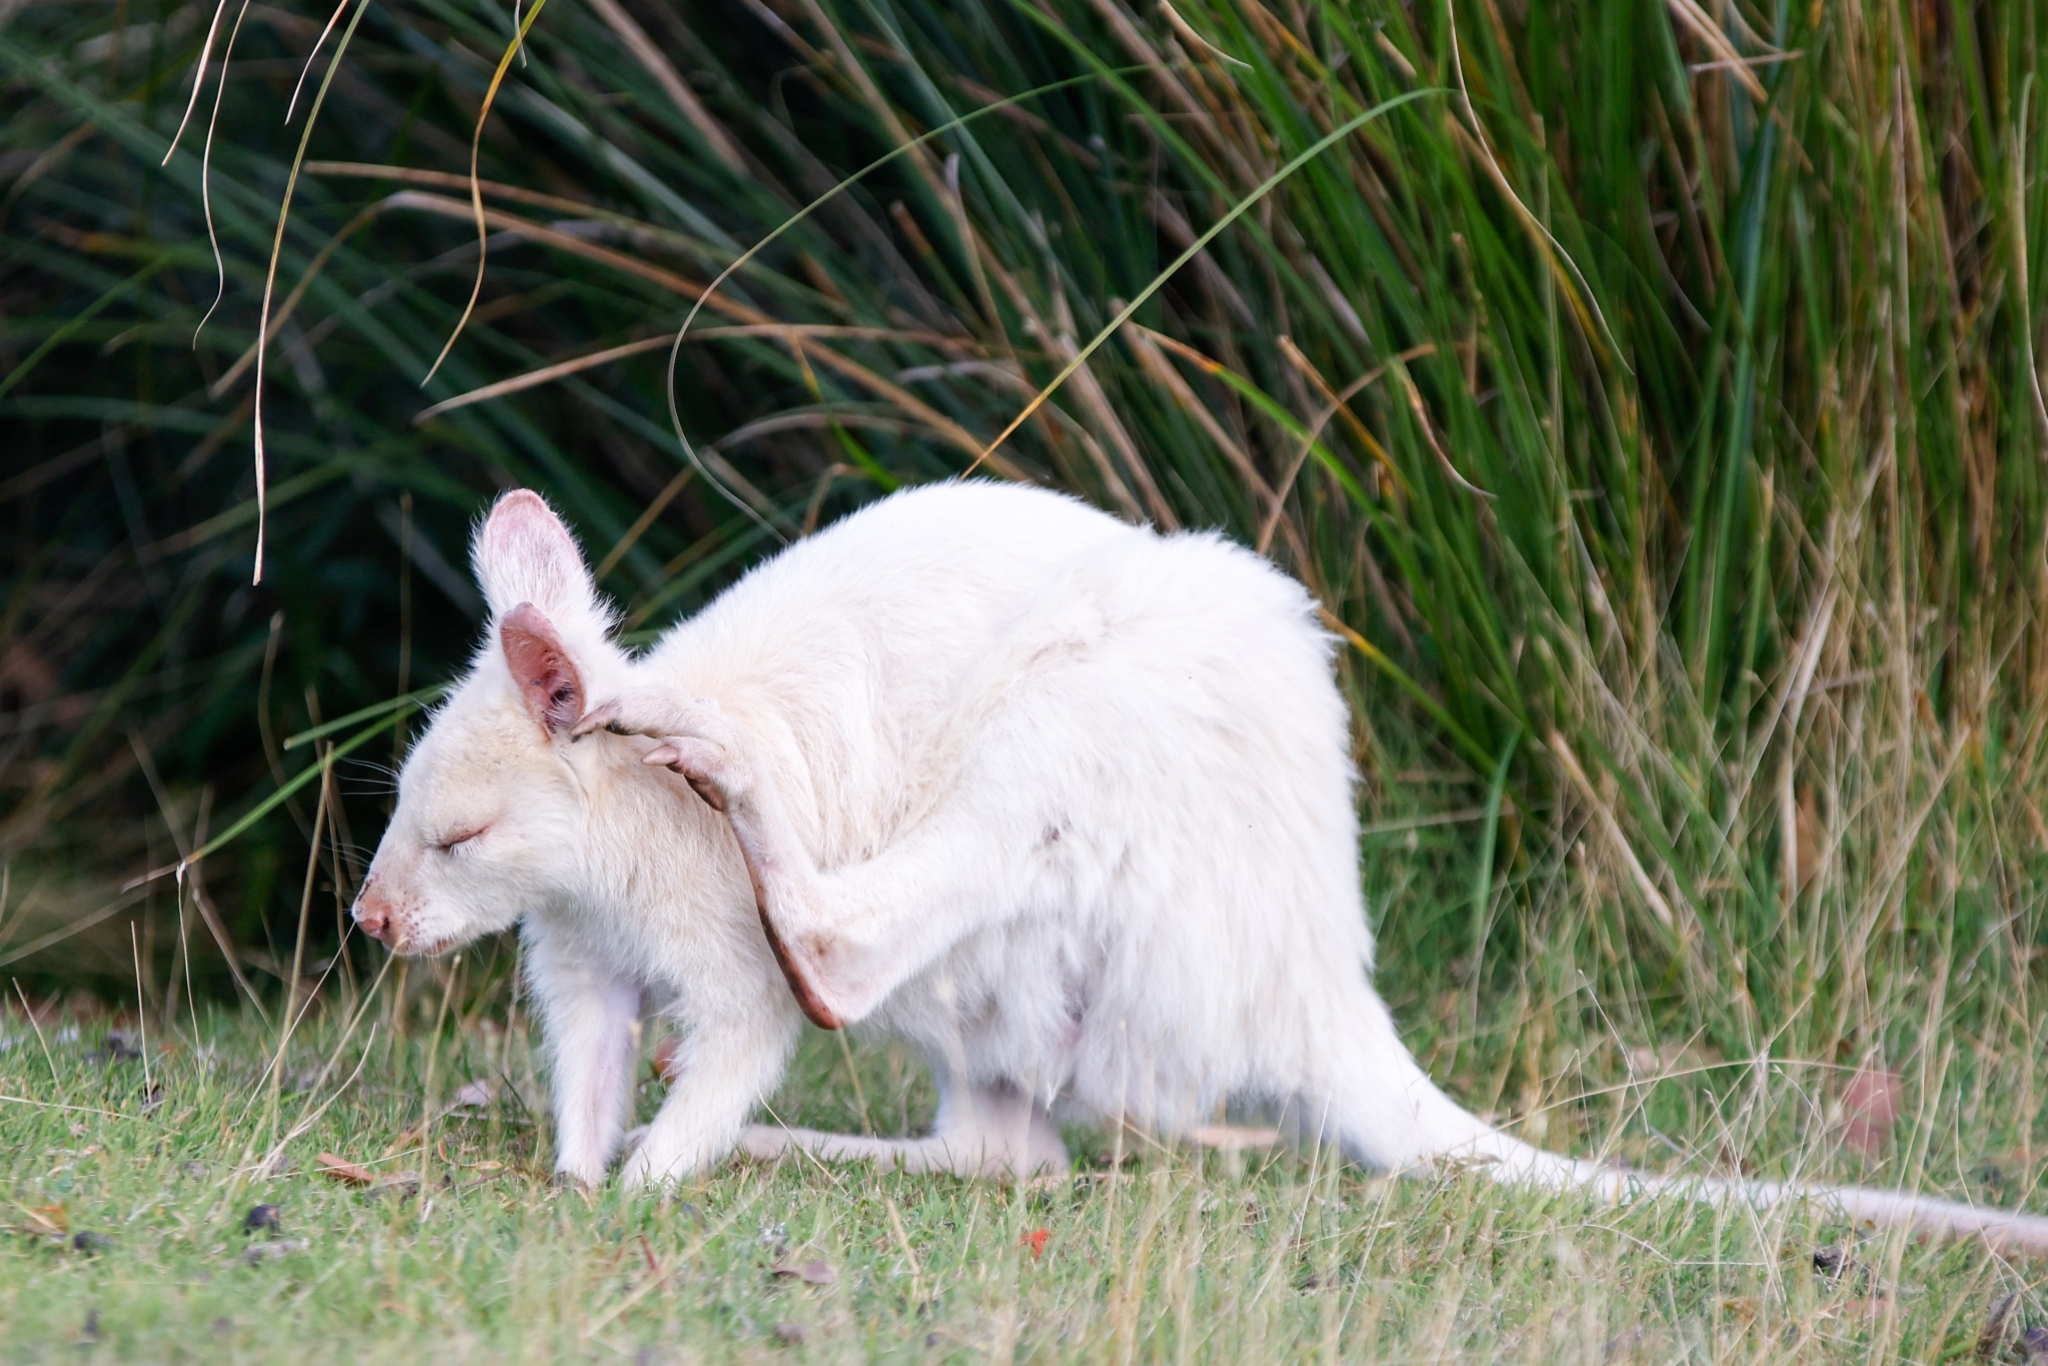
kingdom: Animalia
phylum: Chordata
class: Mammalia
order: Diprotodontia
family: Macropodidae
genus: Notamacropus
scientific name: Notamacropus rufogriseus
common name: Red-necked wallaby
